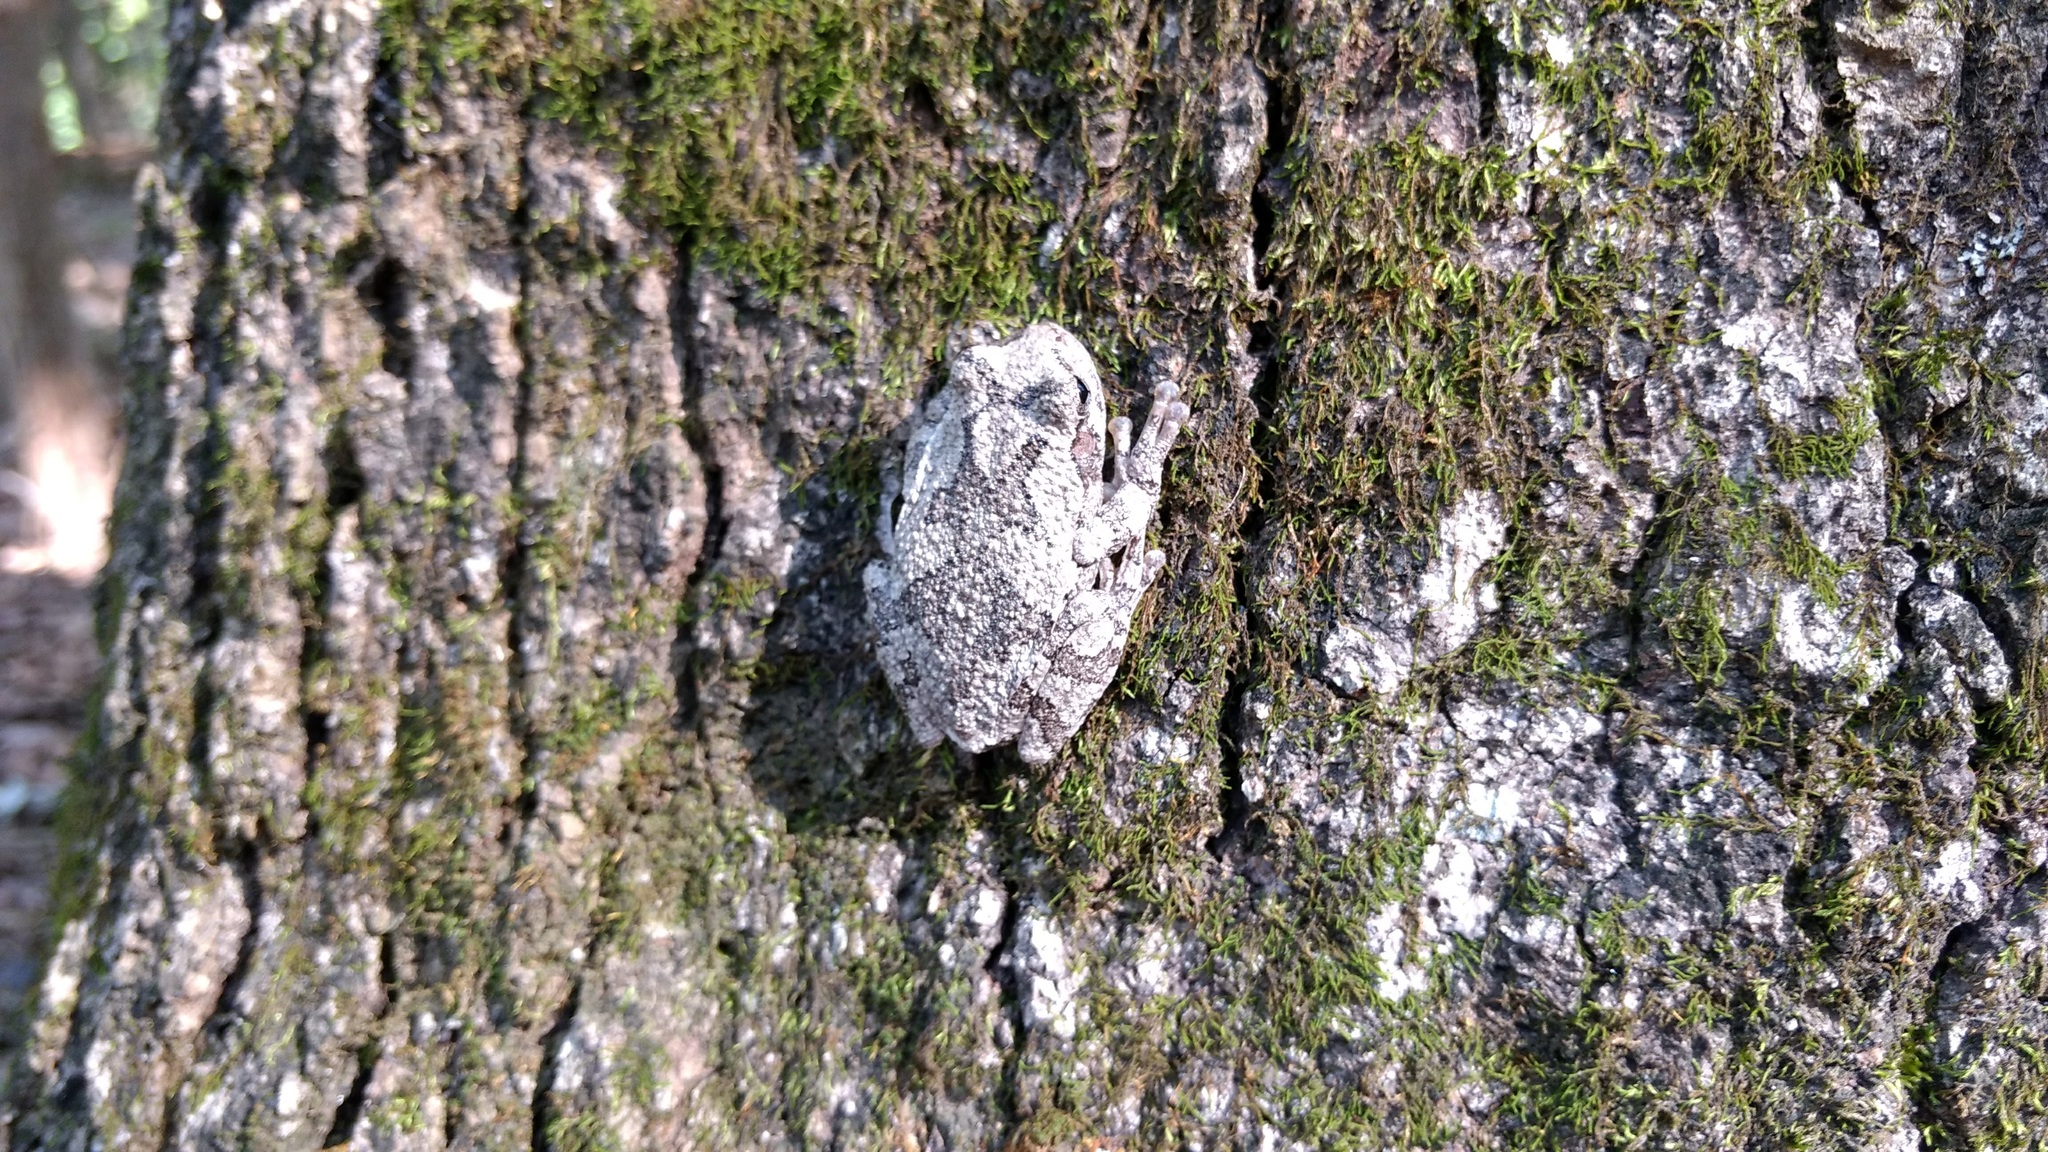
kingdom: Animalia
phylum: Chordata
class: Amphibia
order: Anura
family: Hylidae
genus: Hyla
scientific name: Hyla
